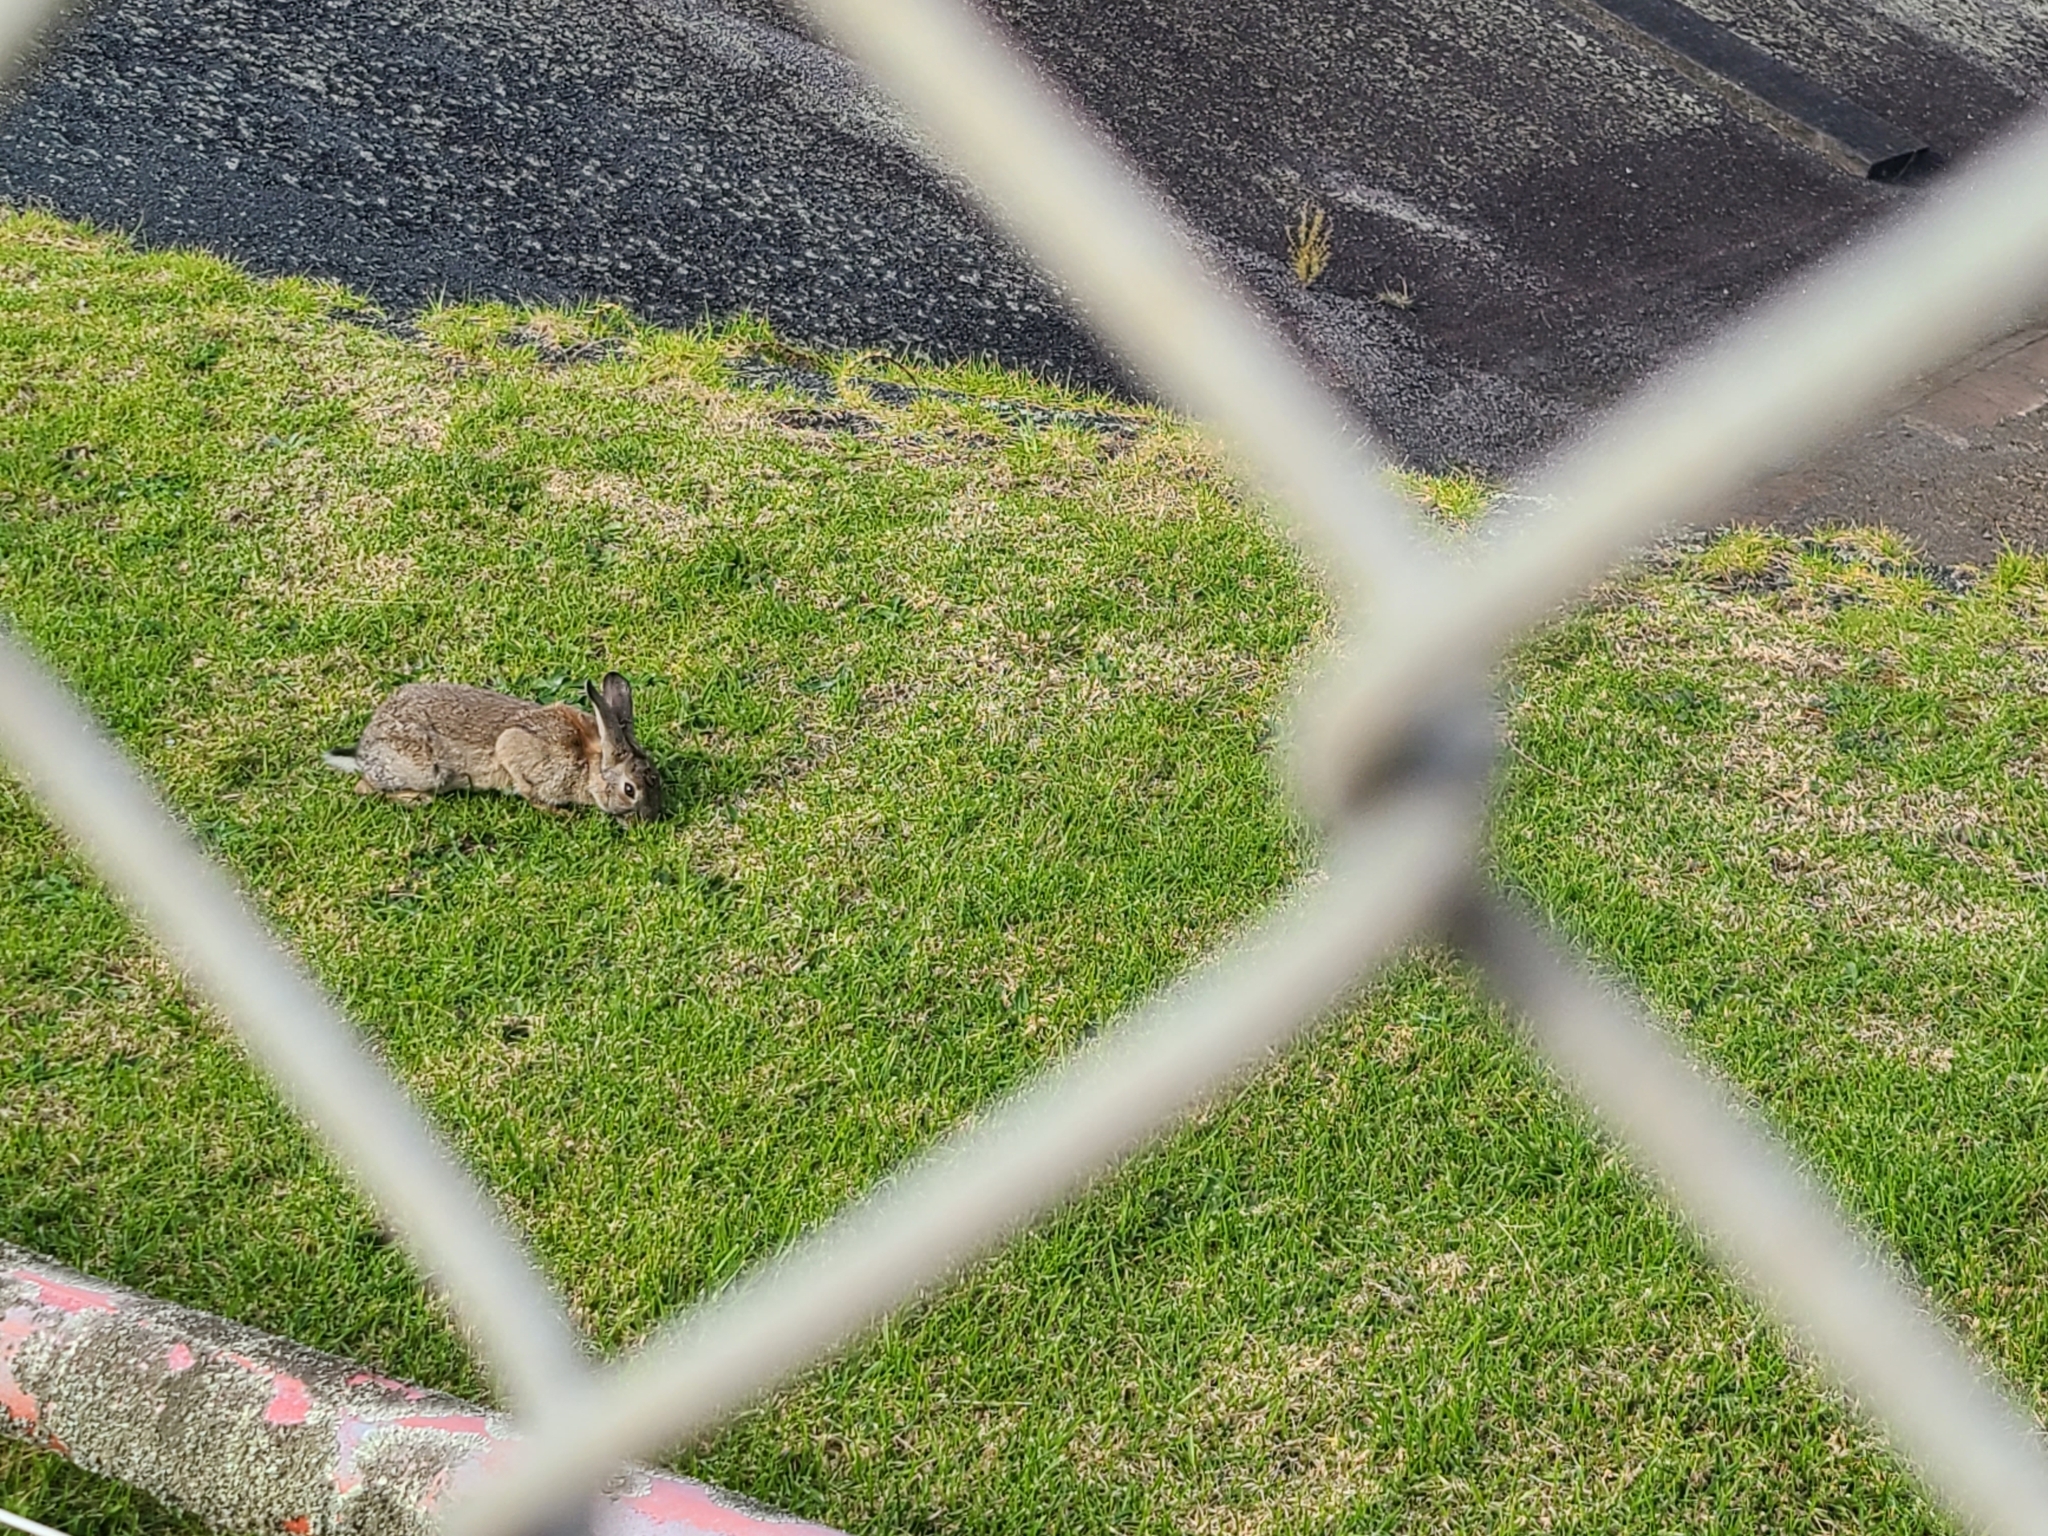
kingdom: Animalia
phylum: Chordata
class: Mammalia
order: Lagomorpha
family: Leporidae
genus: Oryctolagus
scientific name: Oryctolagus cuniculus
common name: European rabbit
